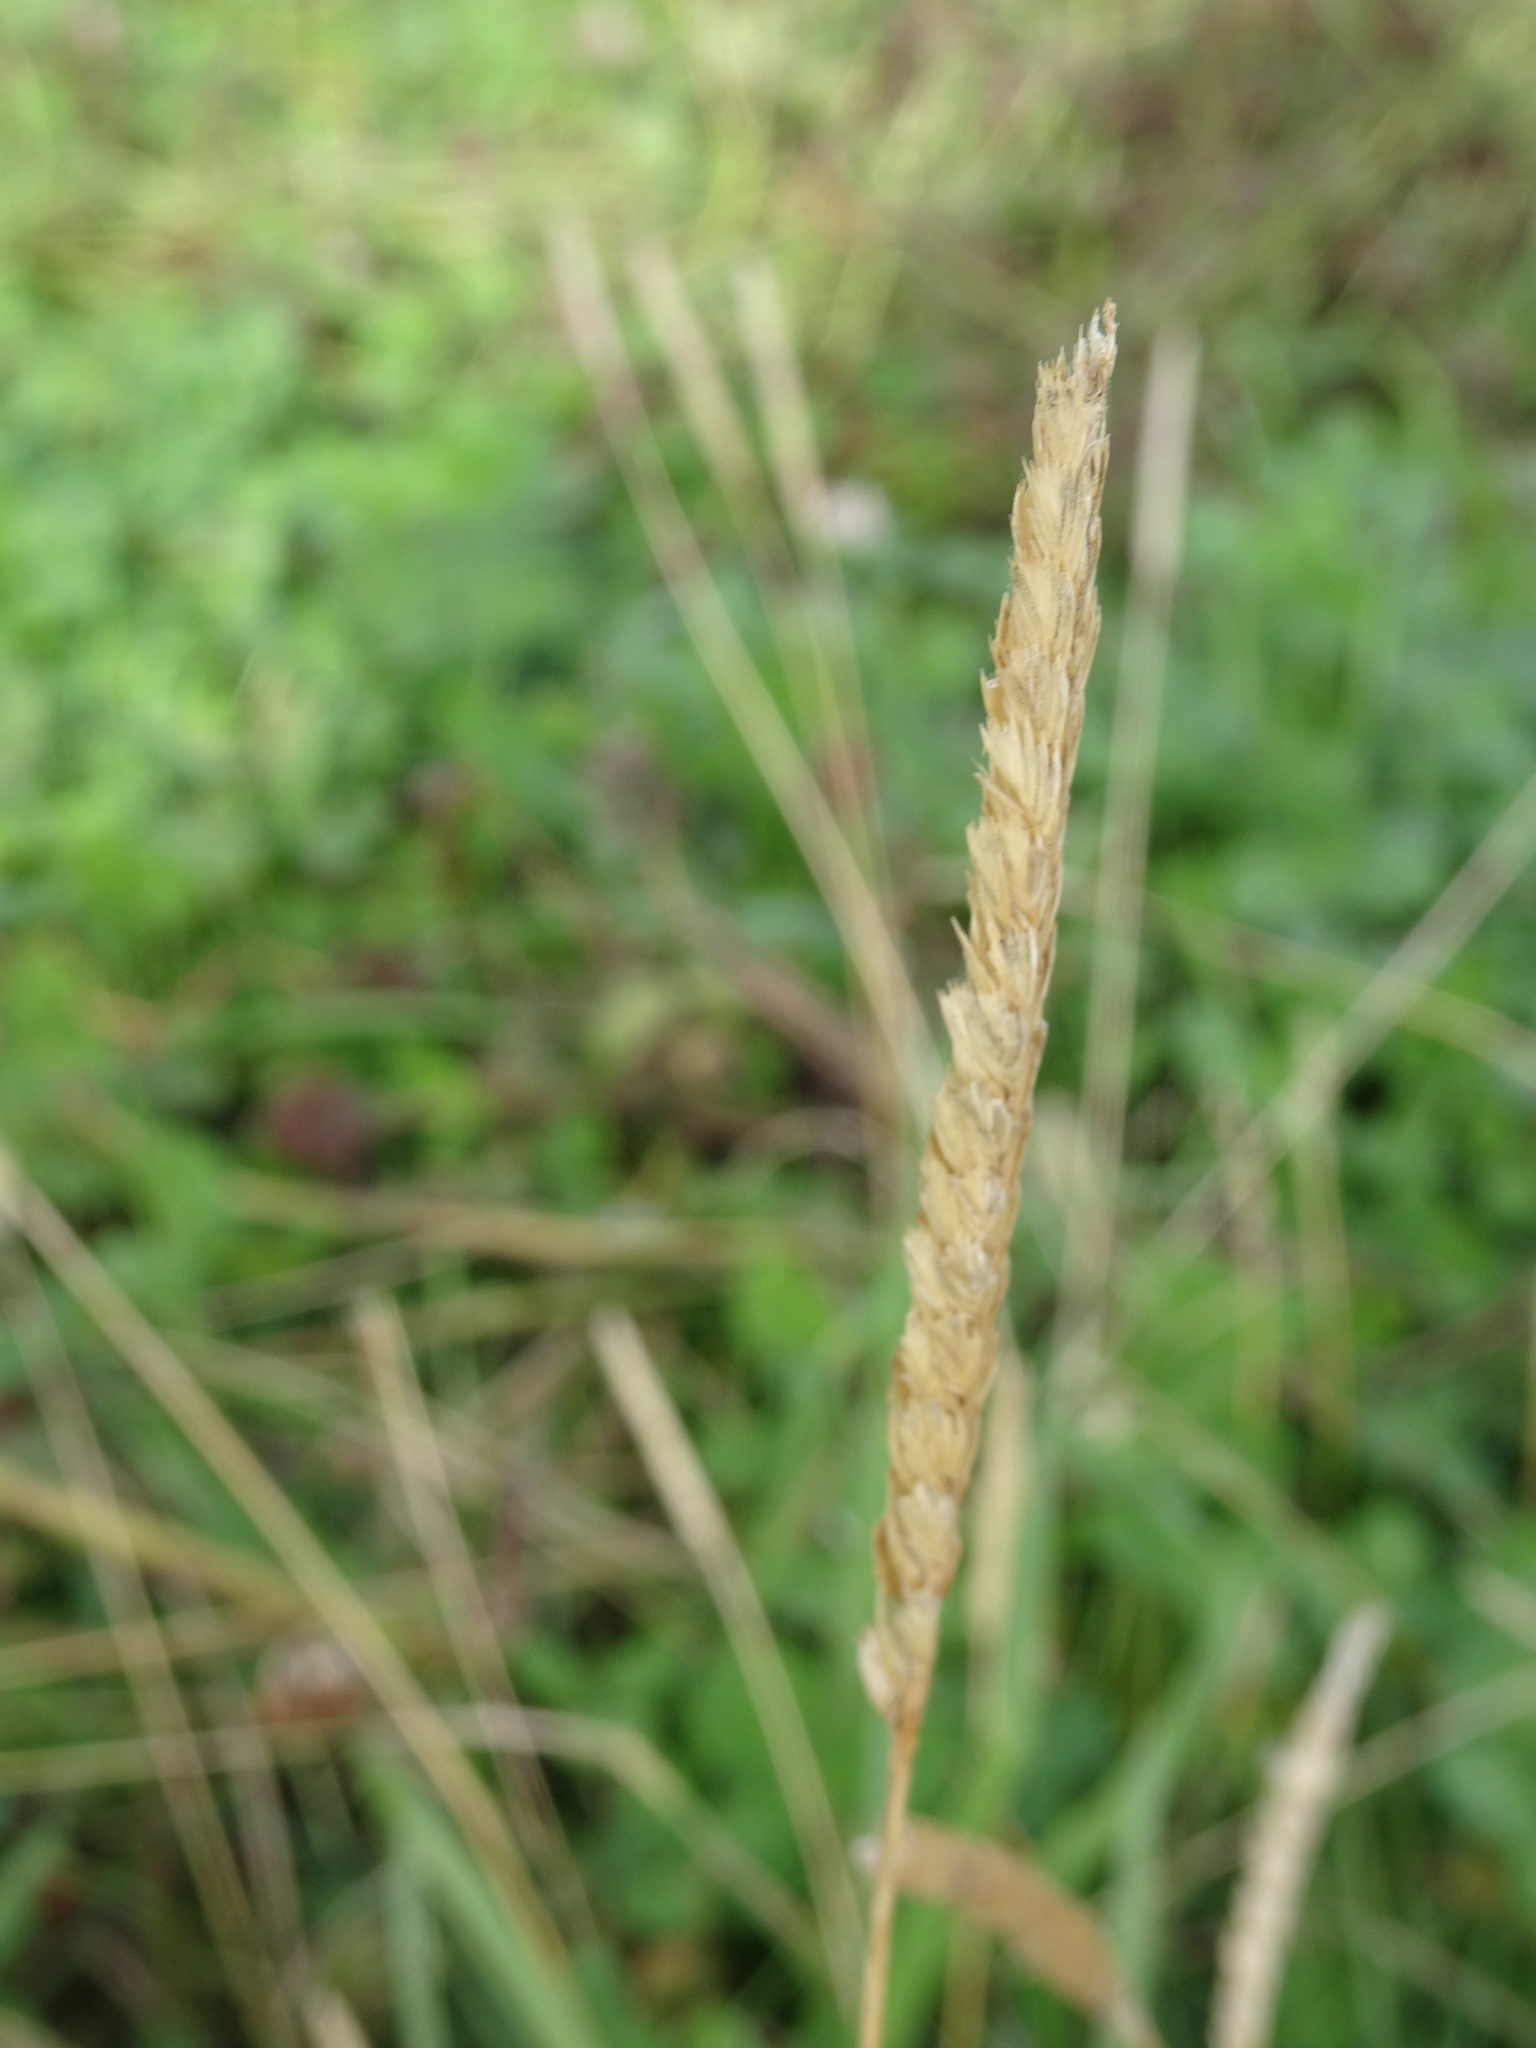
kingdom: Plantae
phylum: Tracheophyta
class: Liliopsida
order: Poales
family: Poaceae
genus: Cynosurus
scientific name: Cynosurus cristatus
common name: Crested dog's-tail
